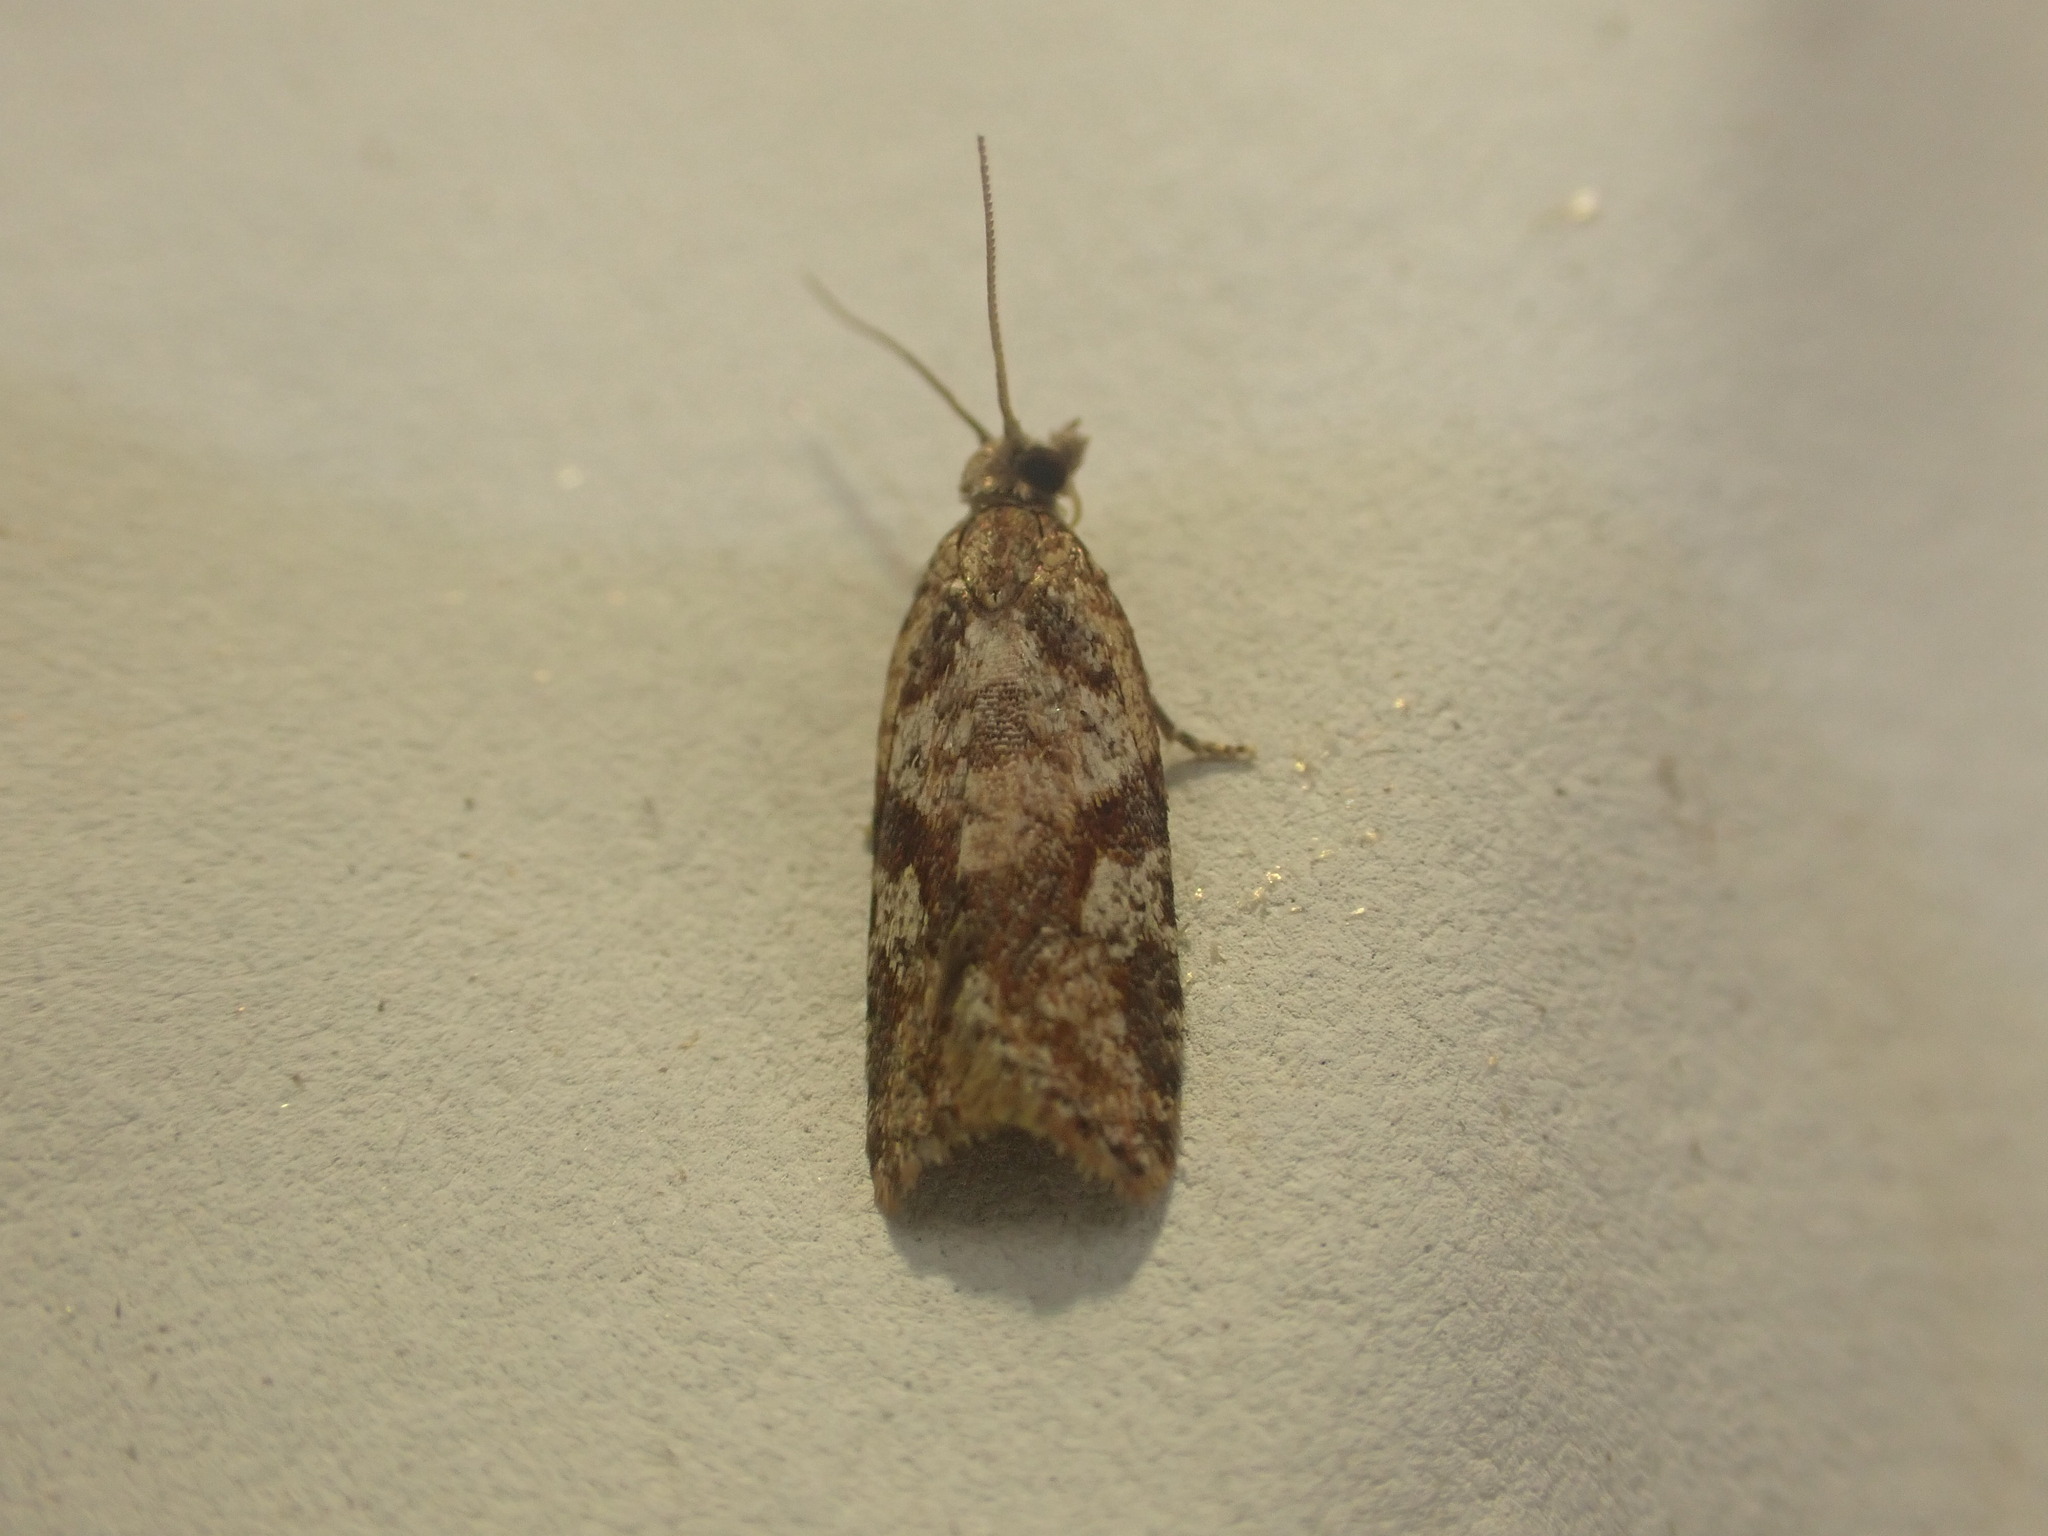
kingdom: Animalia
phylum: Arthropoda
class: Insecta
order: Lepidoptera
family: Tortricidae
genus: Capua
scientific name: Capua semiferana
